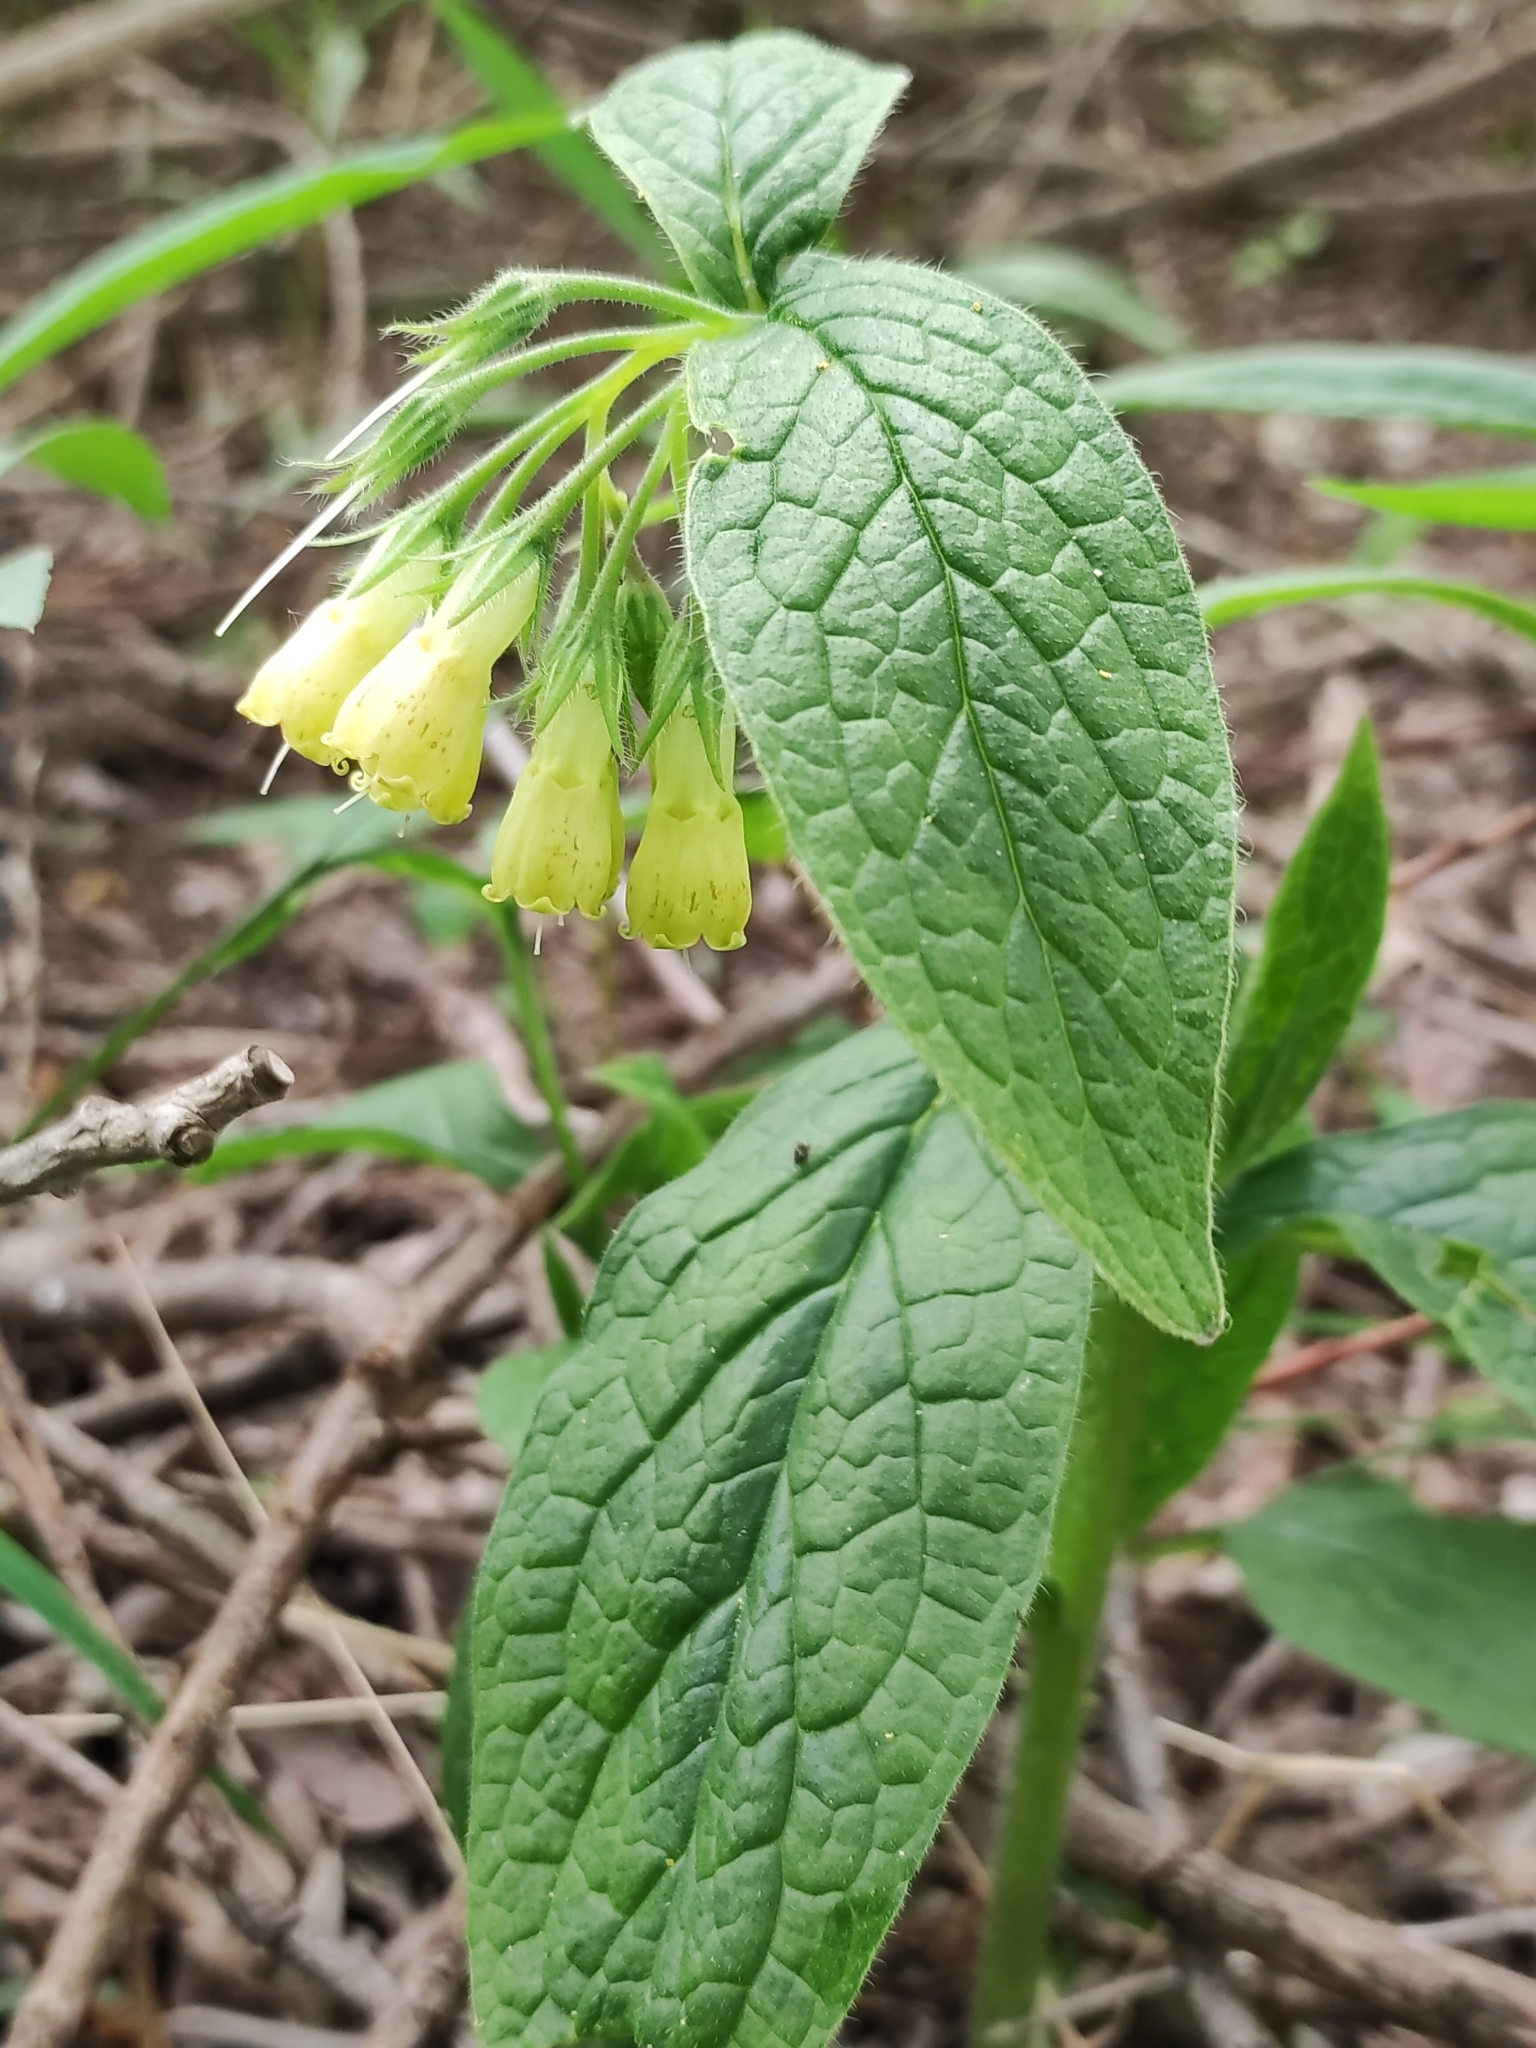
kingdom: Plantae
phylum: Tracheophyta
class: Magnoliopsida
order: Boraginales
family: Boraginaceae
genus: Symphytum
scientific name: Symphytum tuberosum
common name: Tuberous comfrey
